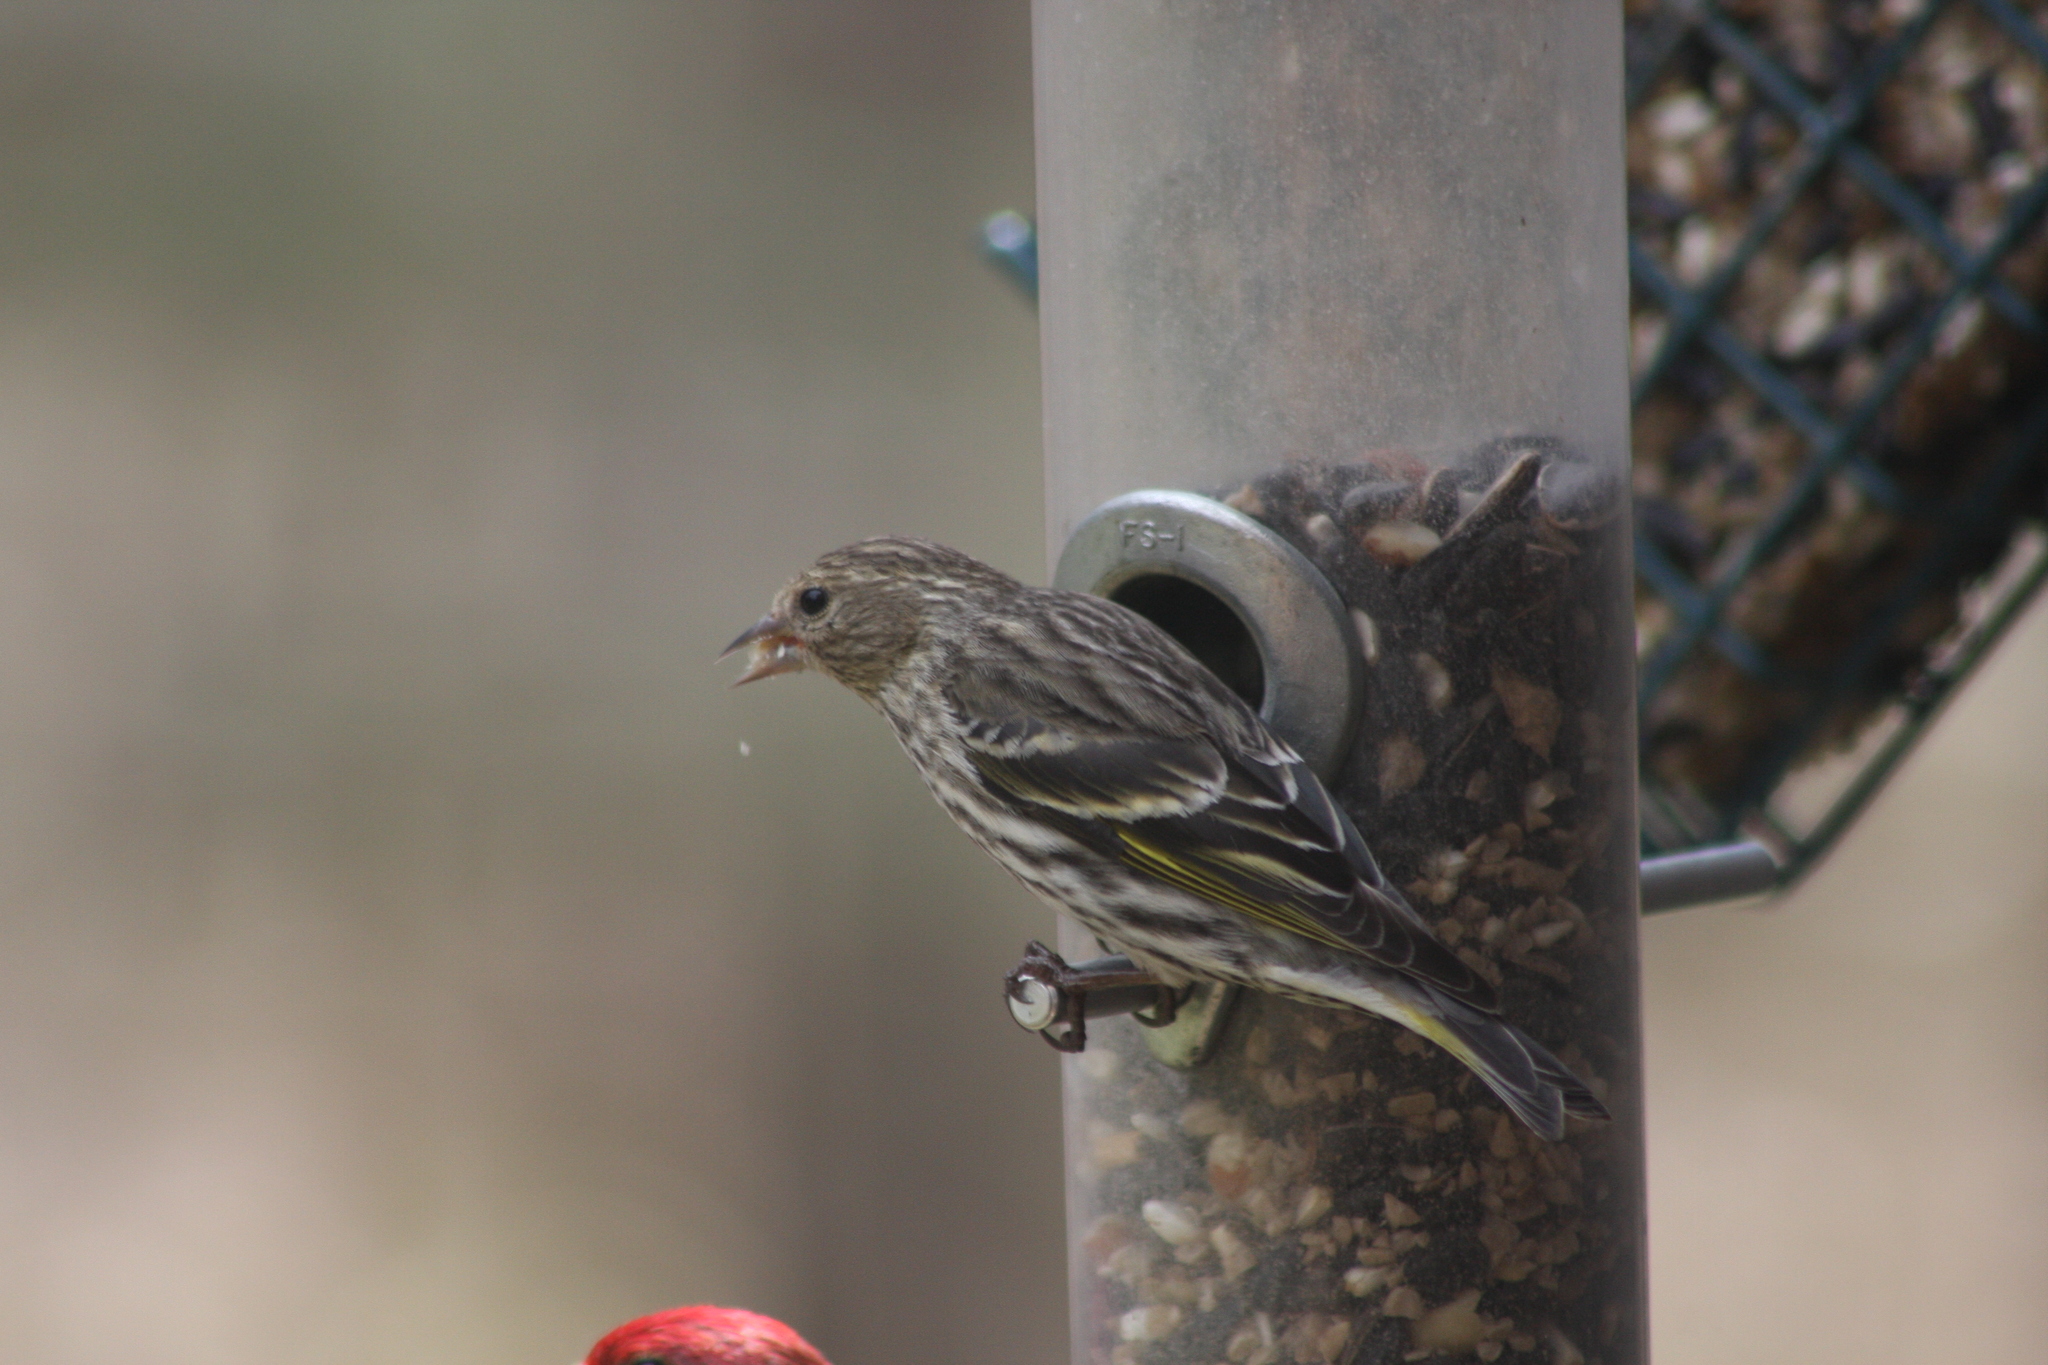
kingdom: Animalia
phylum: Chordata
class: Aves
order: Passeriformes
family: Fringillidae
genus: Spinus
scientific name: Spinus pinus
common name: Pine siskin
